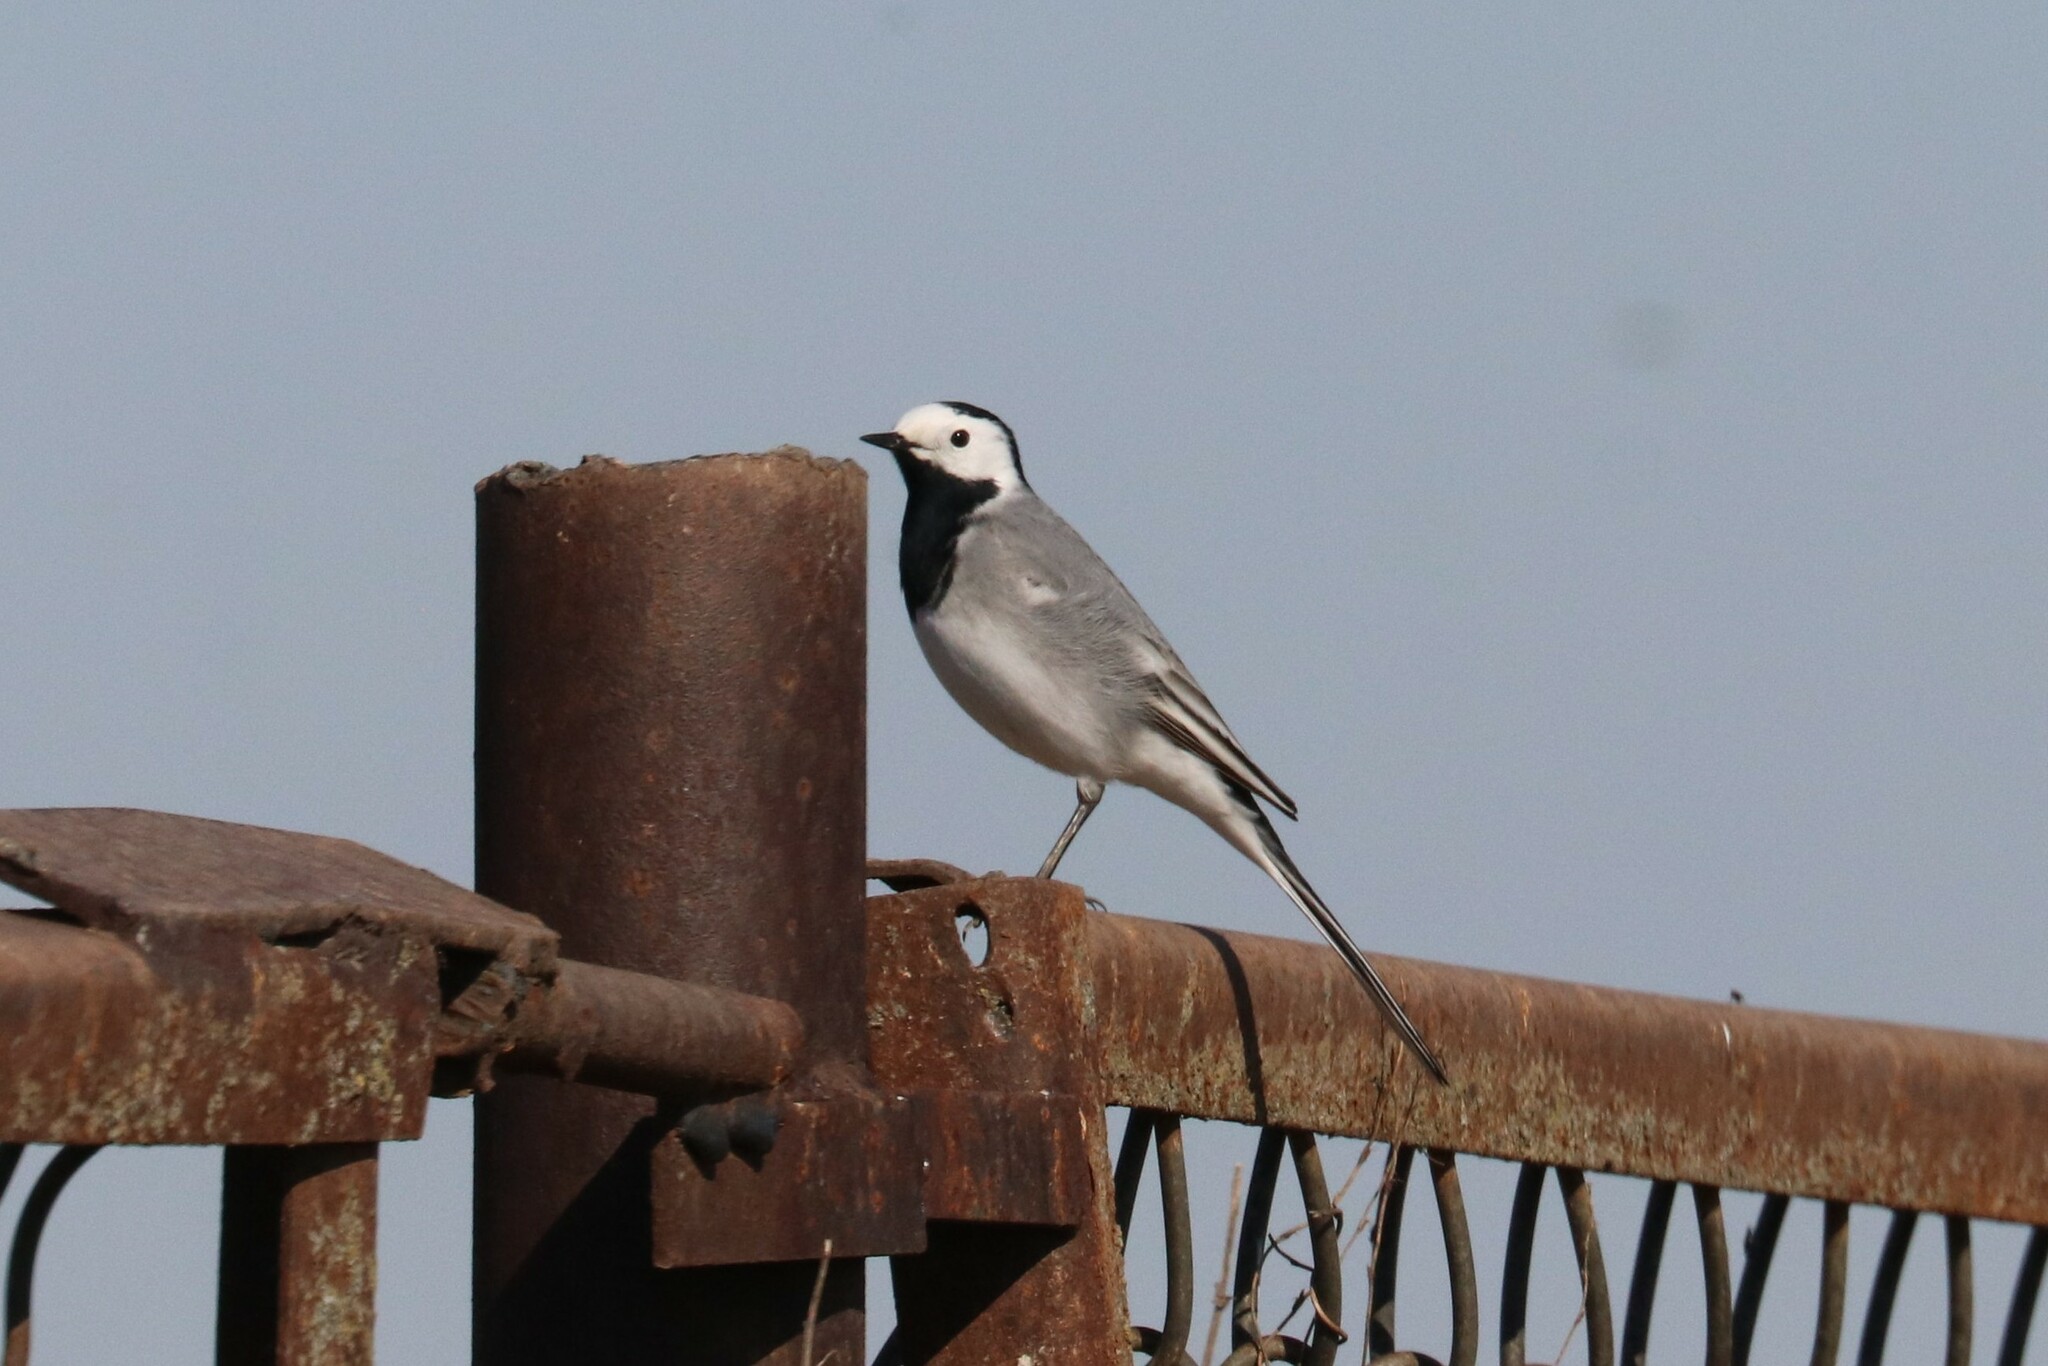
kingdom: Animalia
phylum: Chordata
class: Aves
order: Passeriformes
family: Motacillidae
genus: Motacilla
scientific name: Motacilla alba
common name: White wagtail
